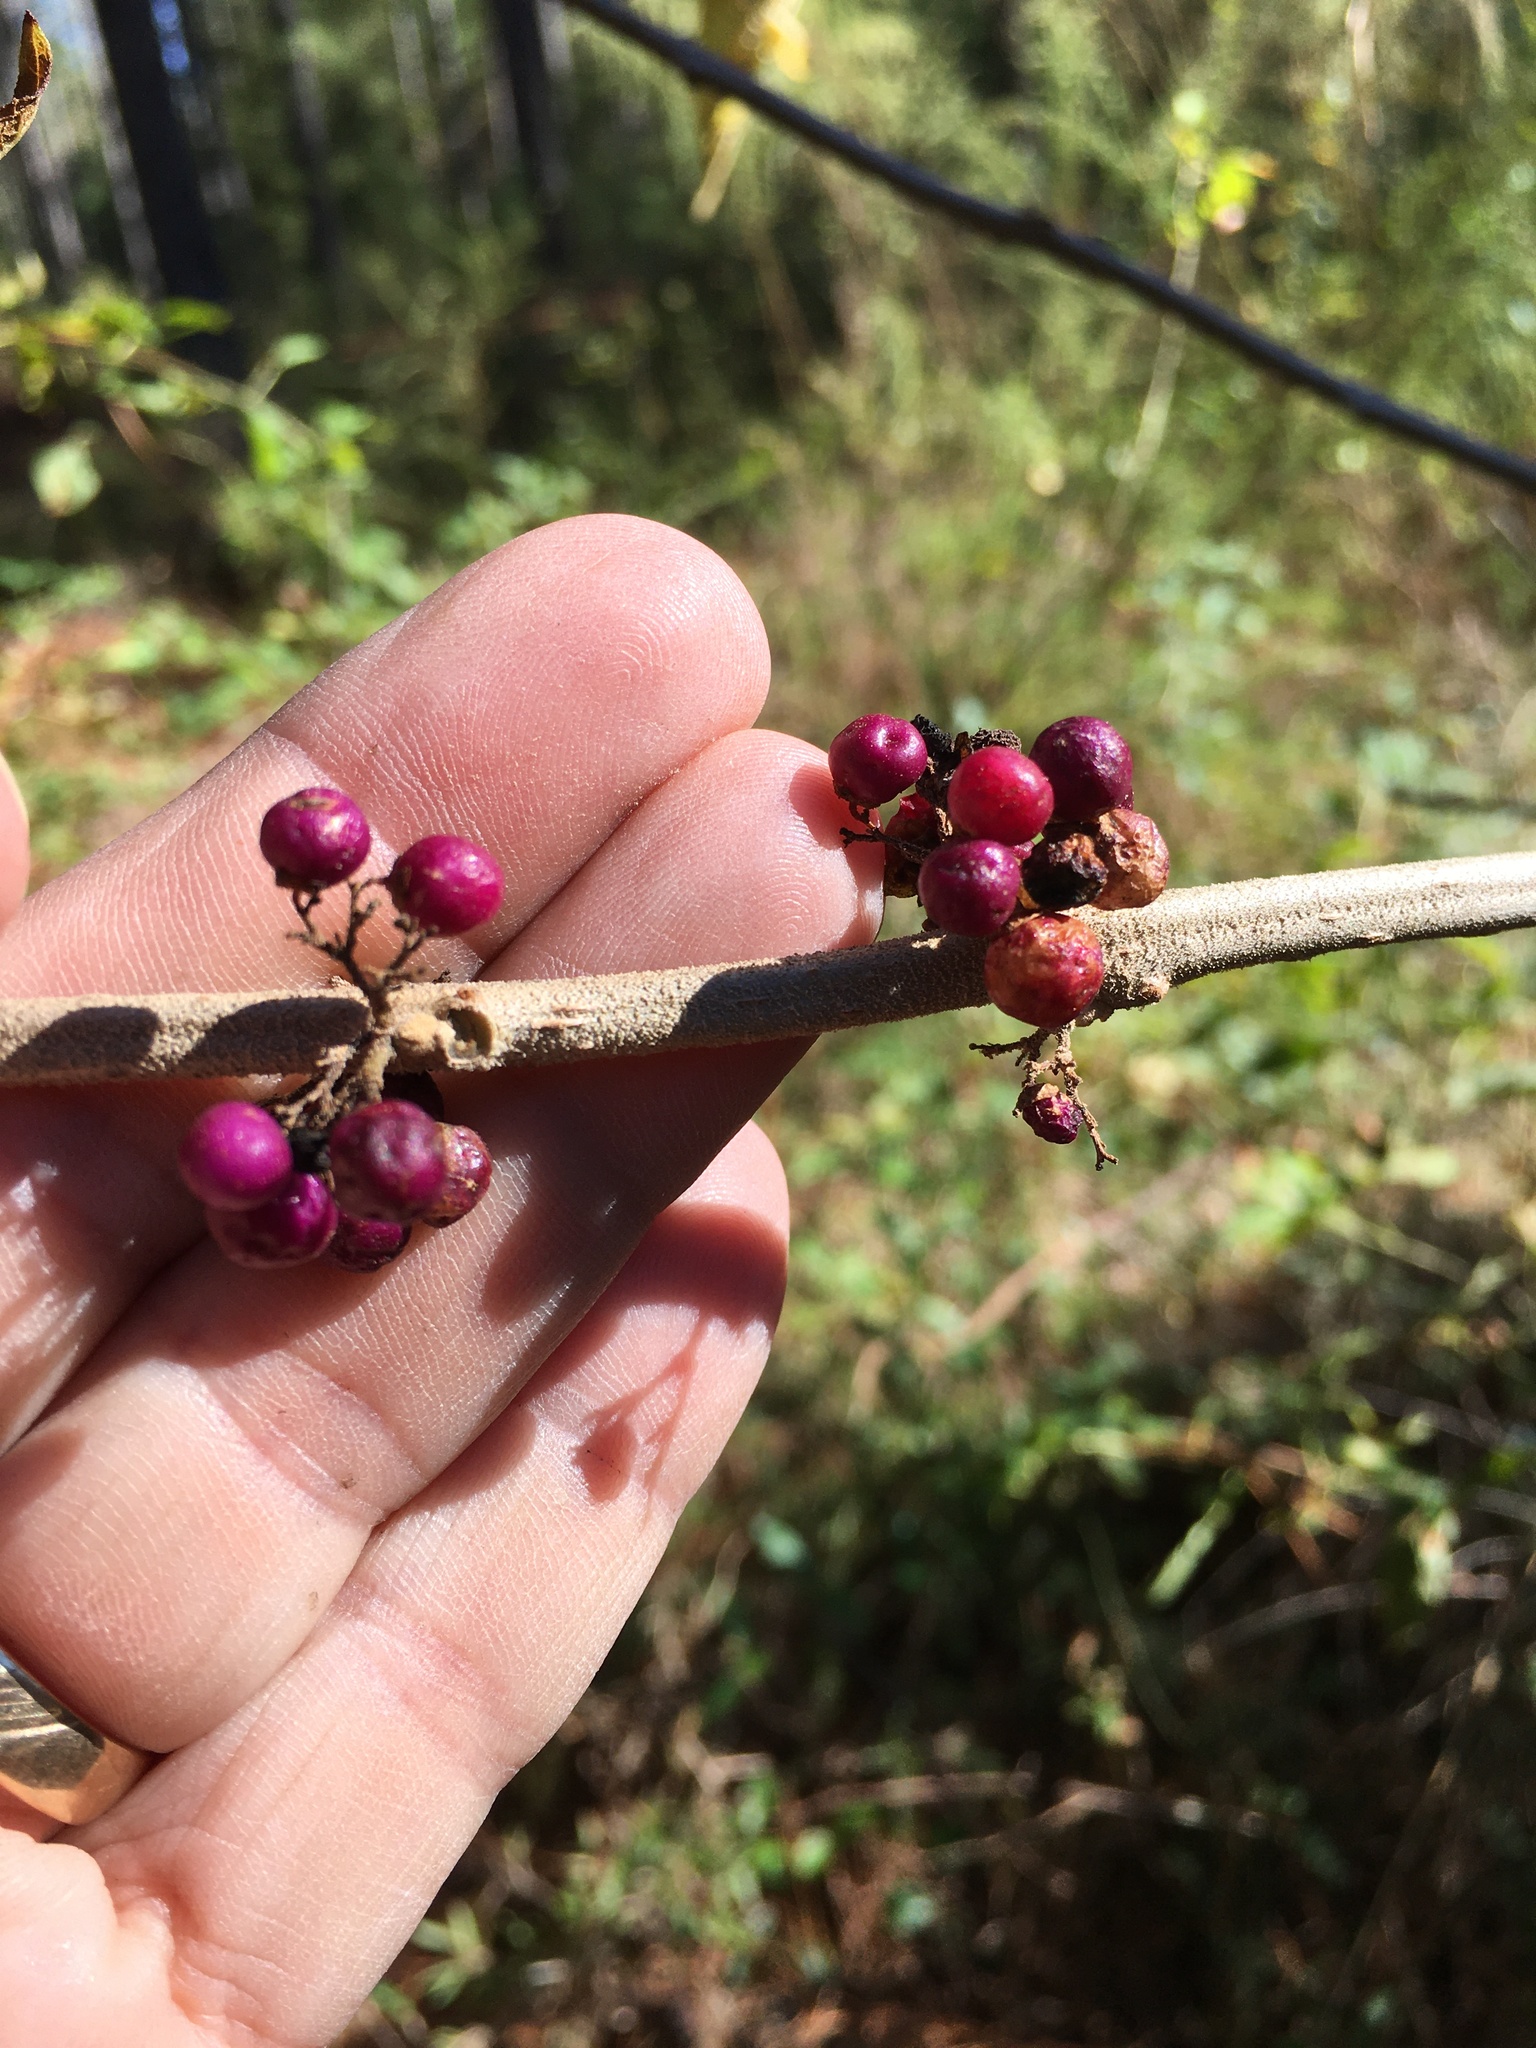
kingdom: Plantae
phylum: Tracheophyta
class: Magnoliopsida
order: Lamiales
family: Lamiaceae
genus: Callicarpa
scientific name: Callicarpa americana
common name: American beautyberry
